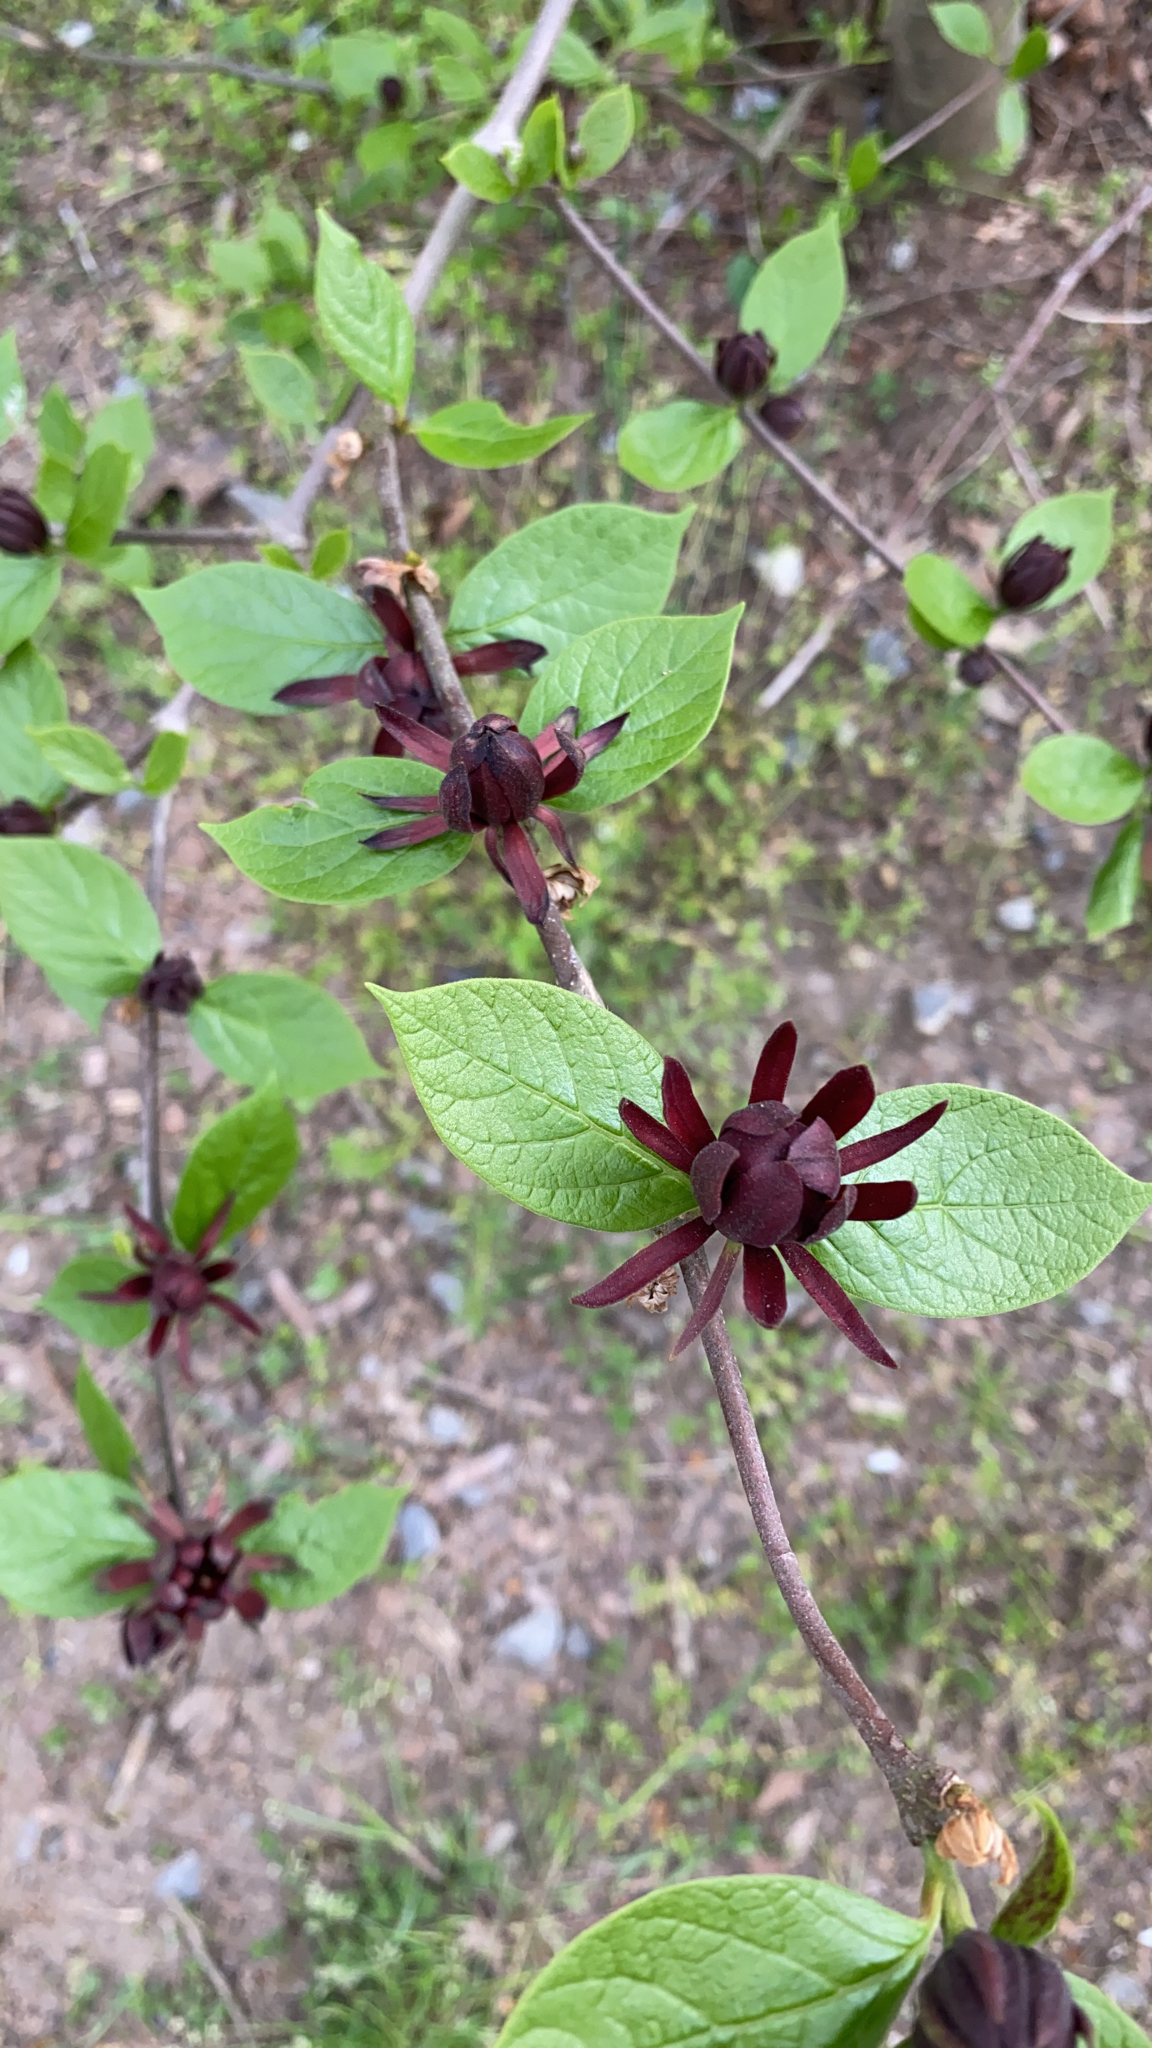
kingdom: Plantae
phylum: Tracheophyta
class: Magnoliopsida
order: Laurales
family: Calycanthaceae
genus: Calycanthus
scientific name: Calycanthus floridus
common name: Carolina-allspice
